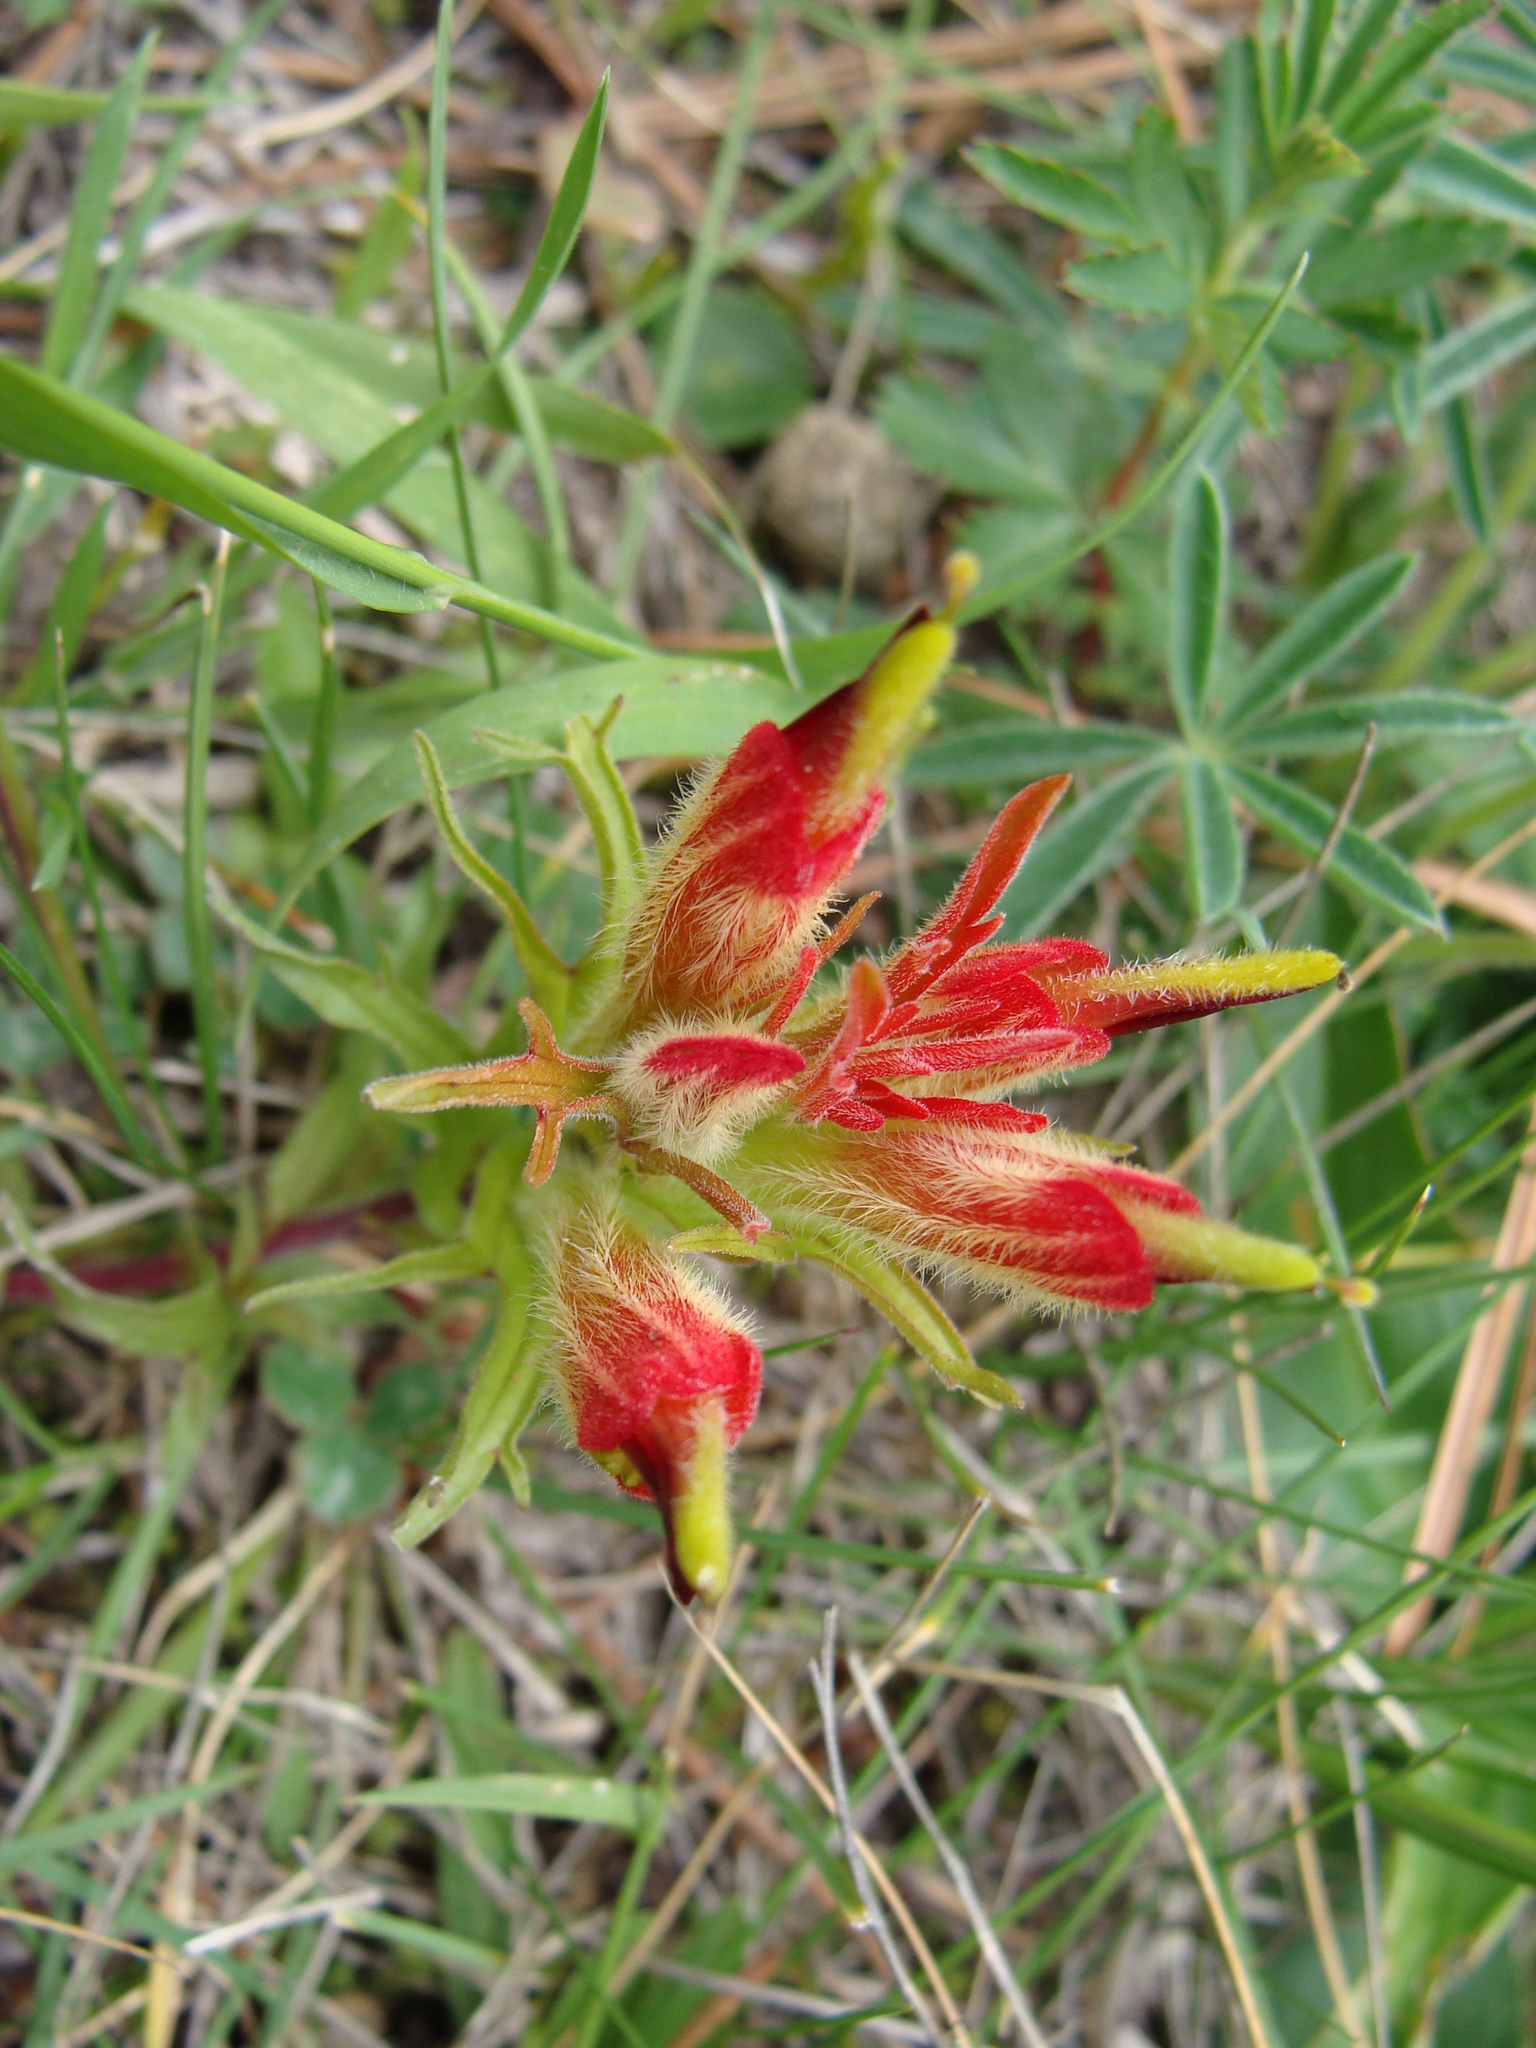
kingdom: Plantae
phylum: Tracheophyta
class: Magnoliopsida
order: Lamiales
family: Orobanchaceae
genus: Castilleja
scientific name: Castilleja moranensis
